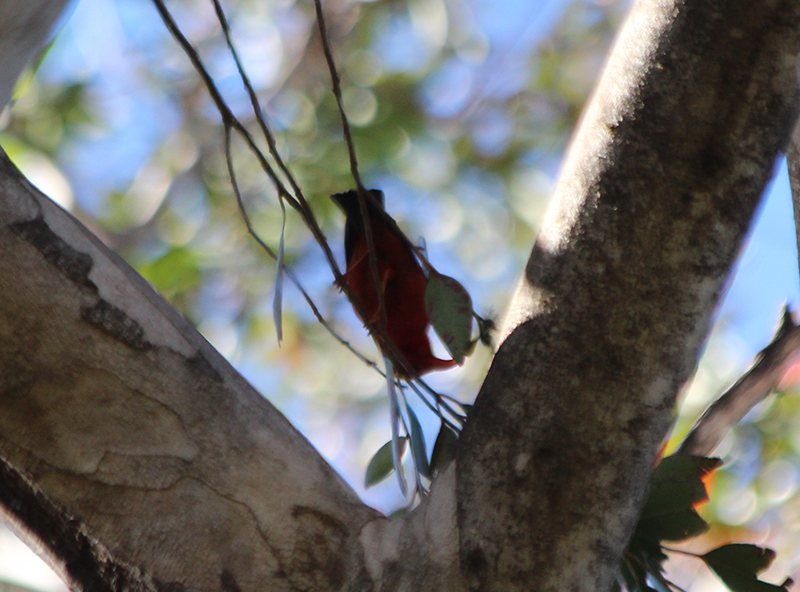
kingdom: Animalia
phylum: Chordata
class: Aves
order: Passeriformes
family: Fringillidae
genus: Vestiaria
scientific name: Vestiaria coccinea
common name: Iiwi
